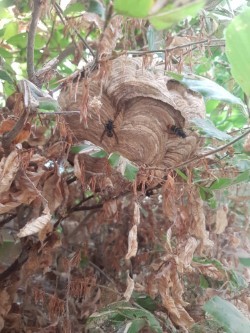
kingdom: Animalia
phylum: Arthropoda
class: Insecta
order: Hymenoptera
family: Vespidae
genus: Vespa
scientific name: Vespa velutina
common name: Asian hornet
